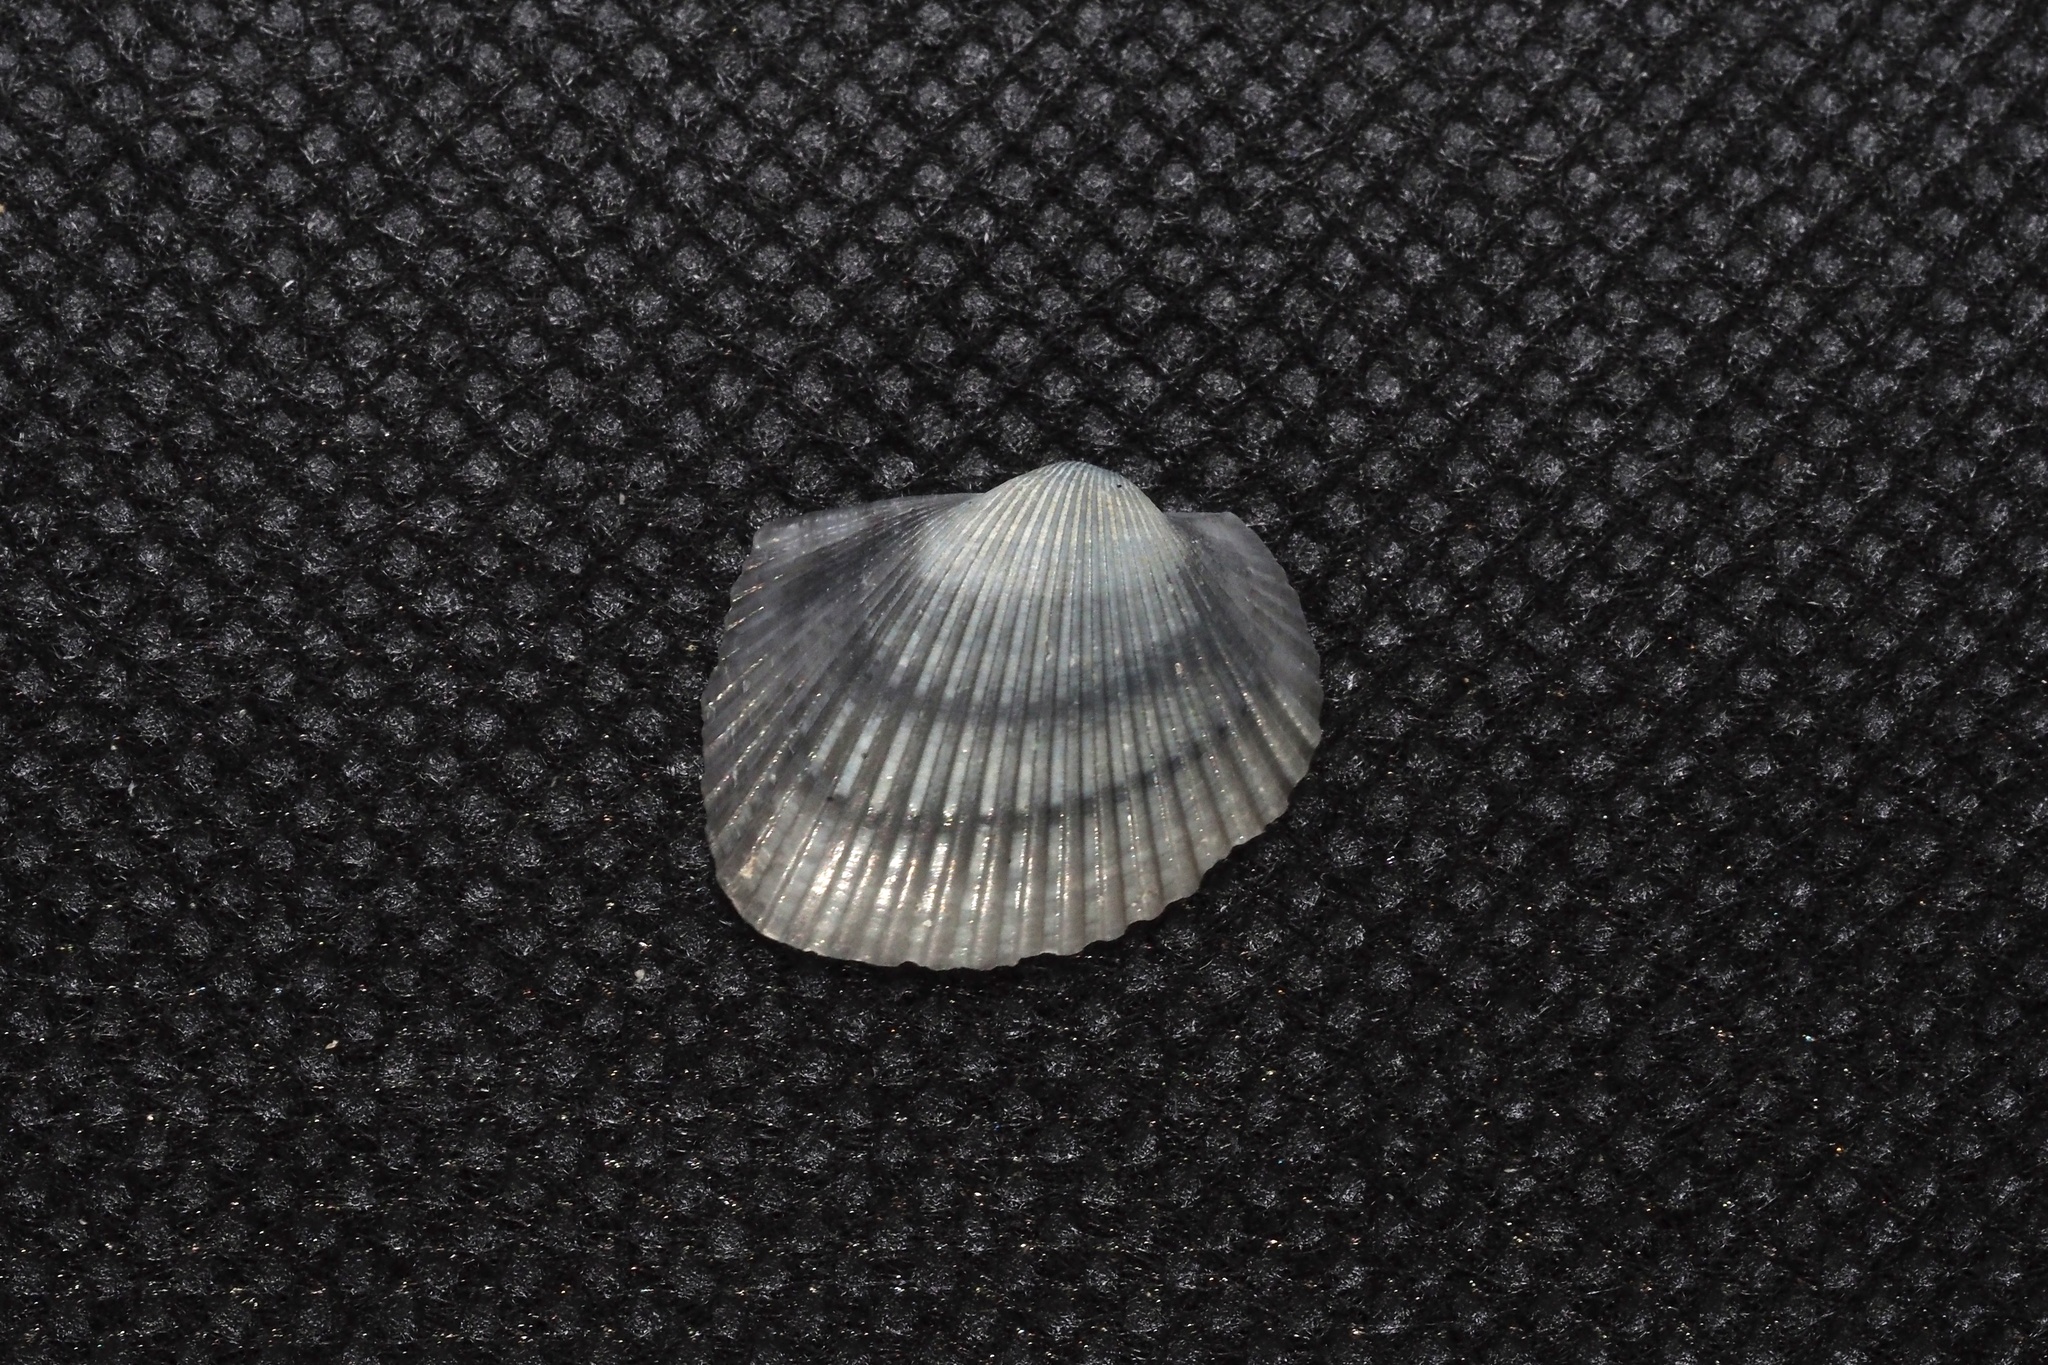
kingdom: Animalia
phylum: Mollusca
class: Bivalvia
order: Arcida
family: Arcidae
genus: Anadara
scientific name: Anadara kagoshimensis
